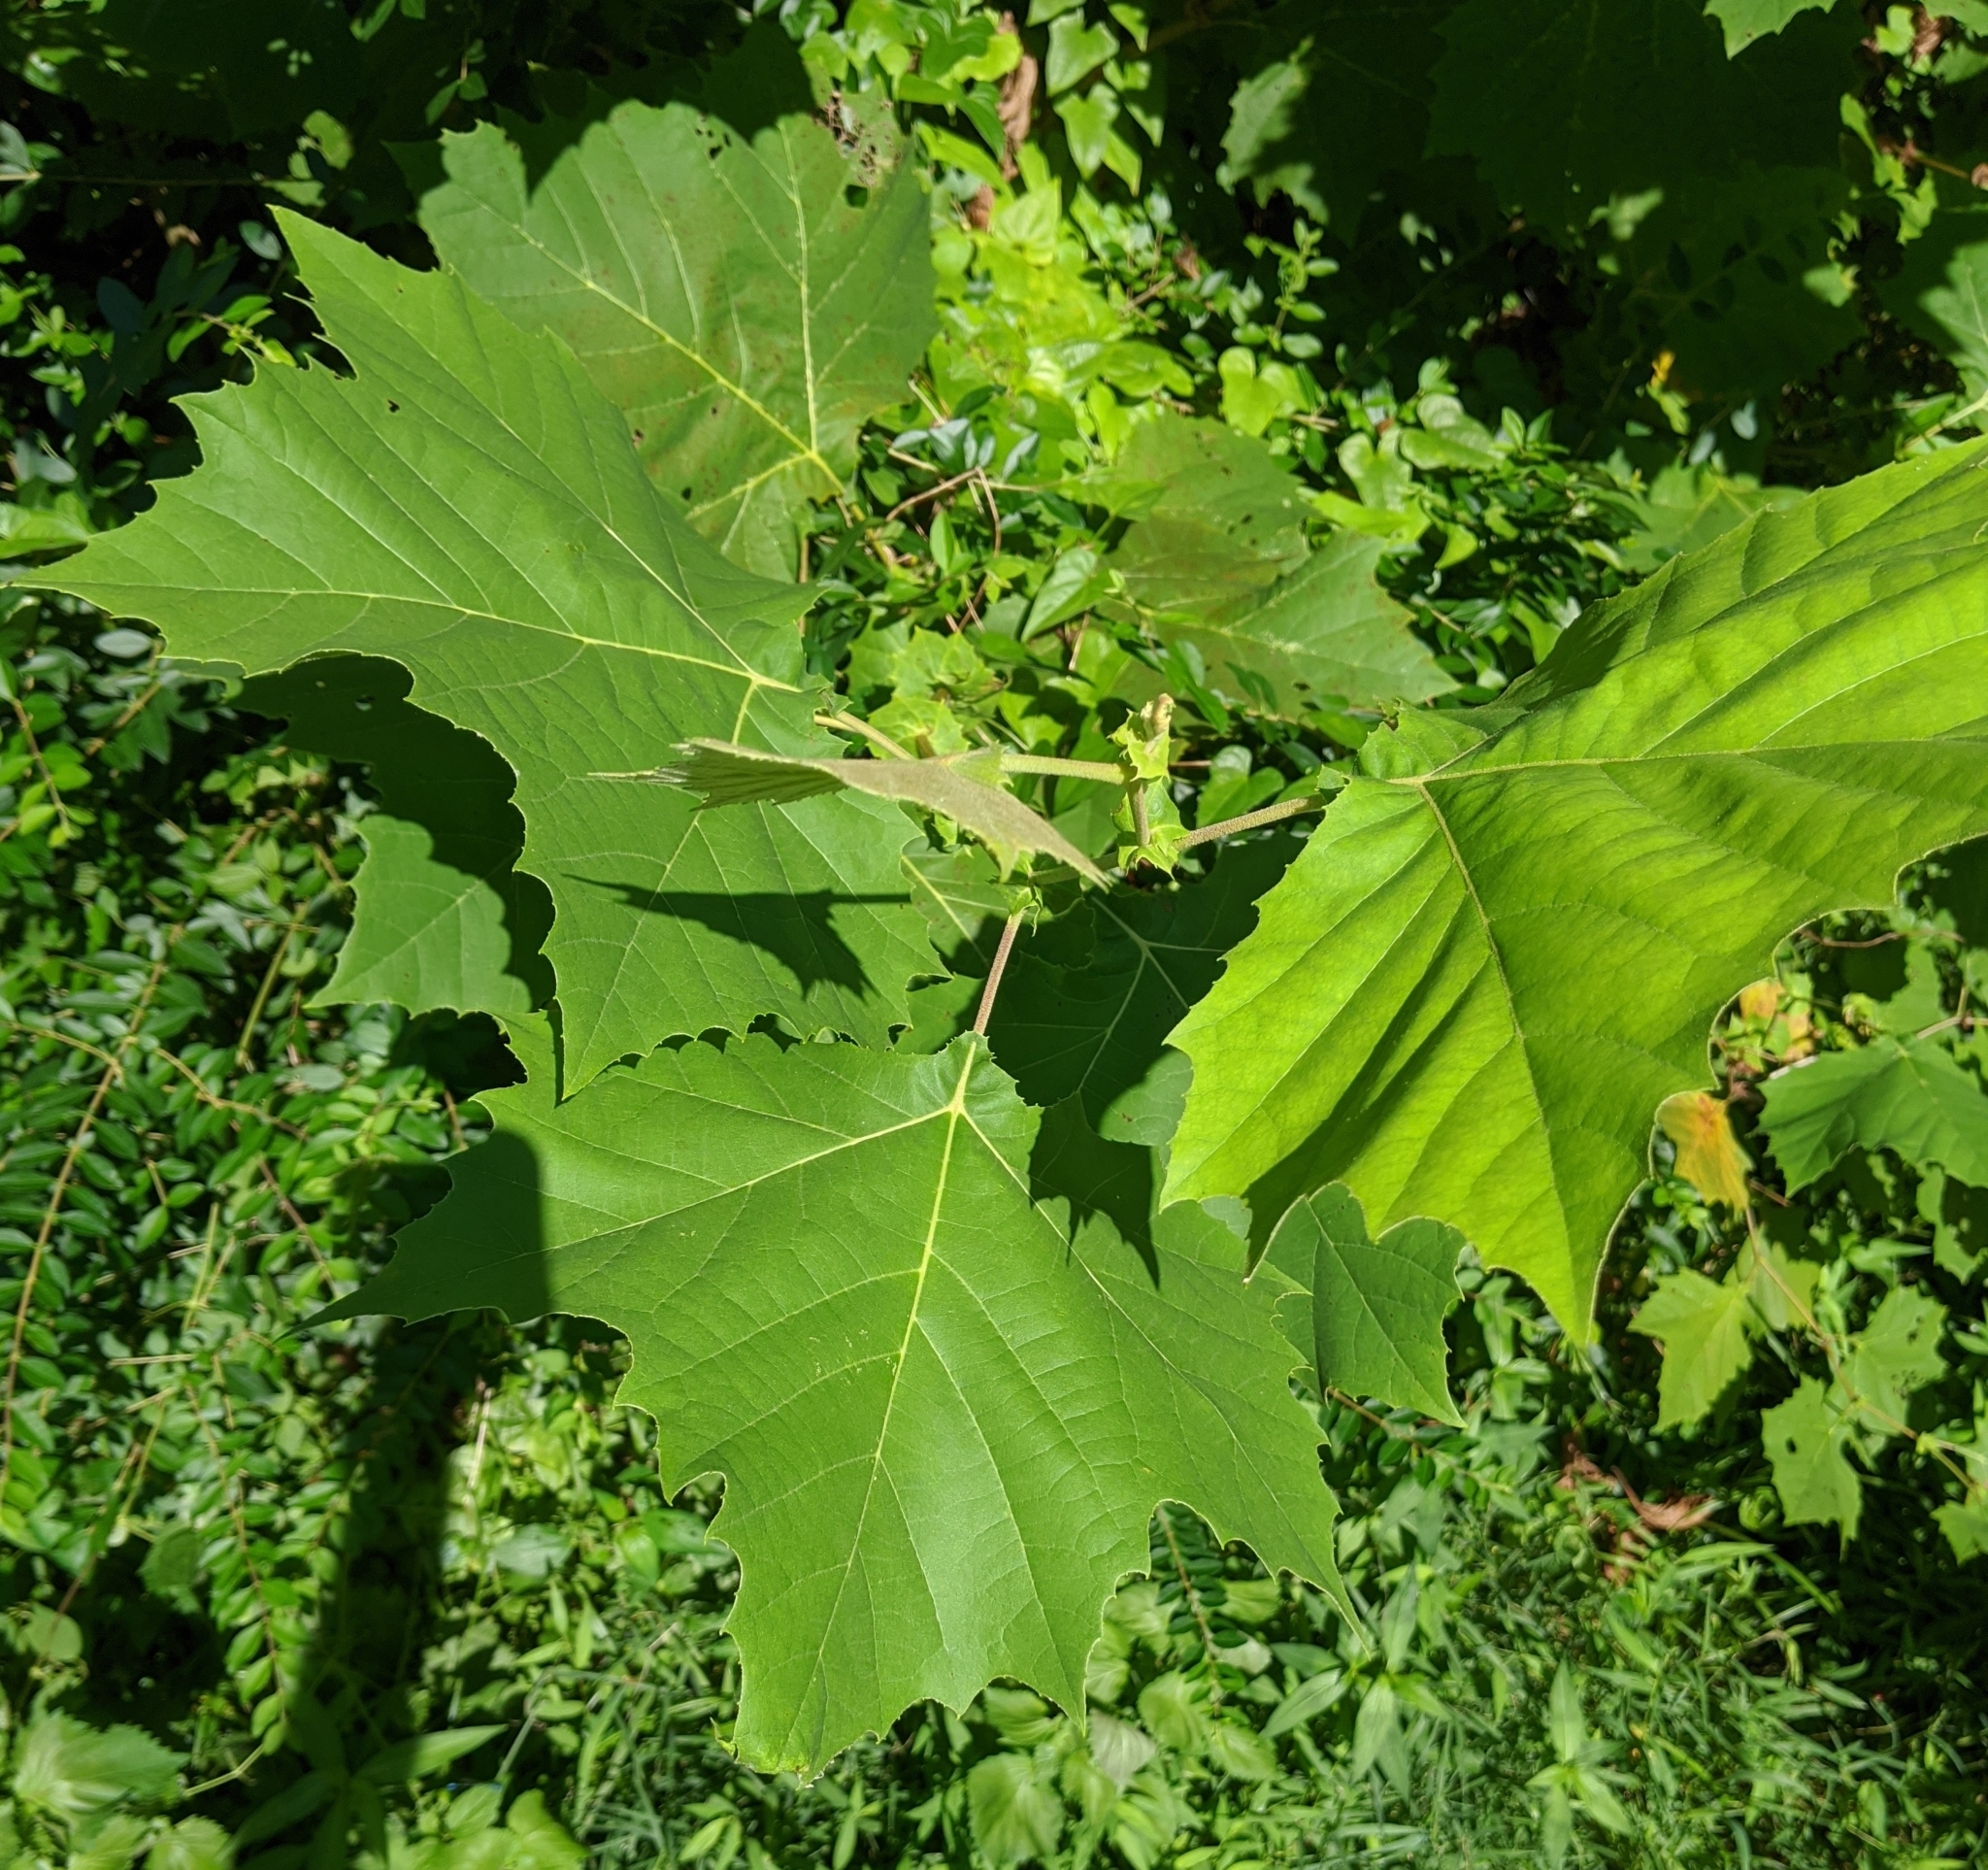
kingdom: Plantae
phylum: Tracheophyta
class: Magnoliopsida
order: Proteales
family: Platanaceae
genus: Platanus
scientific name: Platanus occidentalis
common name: American sycamore
